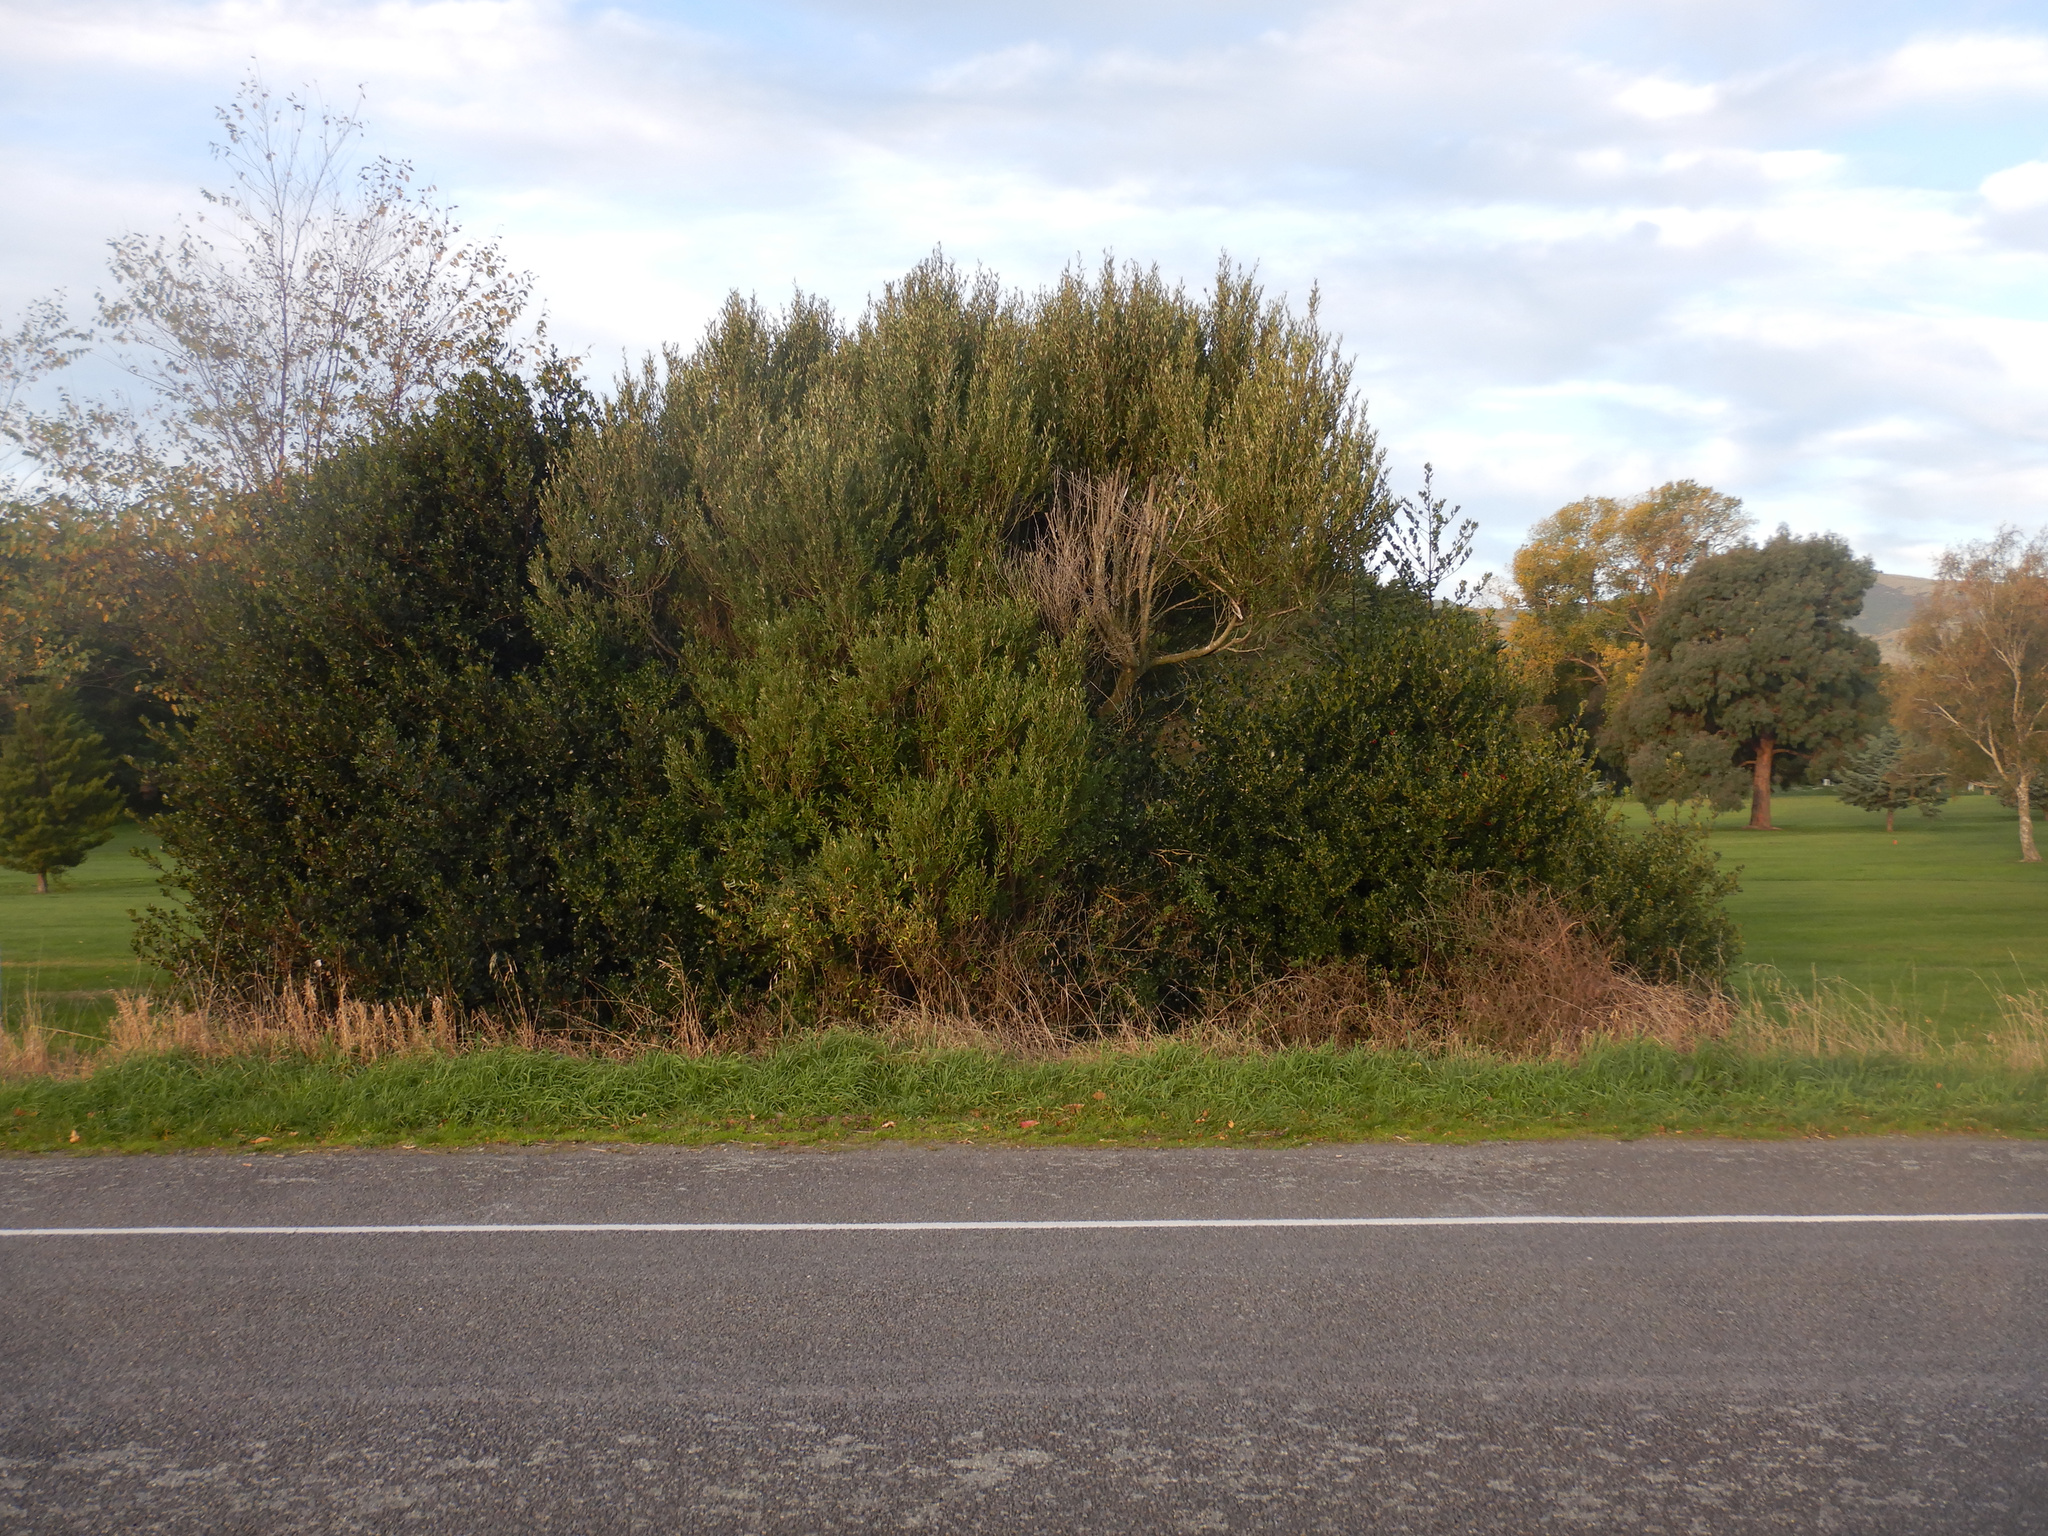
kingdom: Plantae
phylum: Tracheophyta
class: Magnoliopsida
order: Aquifoliales
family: Aquifoliaceae
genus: Ilex
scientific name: Ilex aquifolium
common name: English holly
